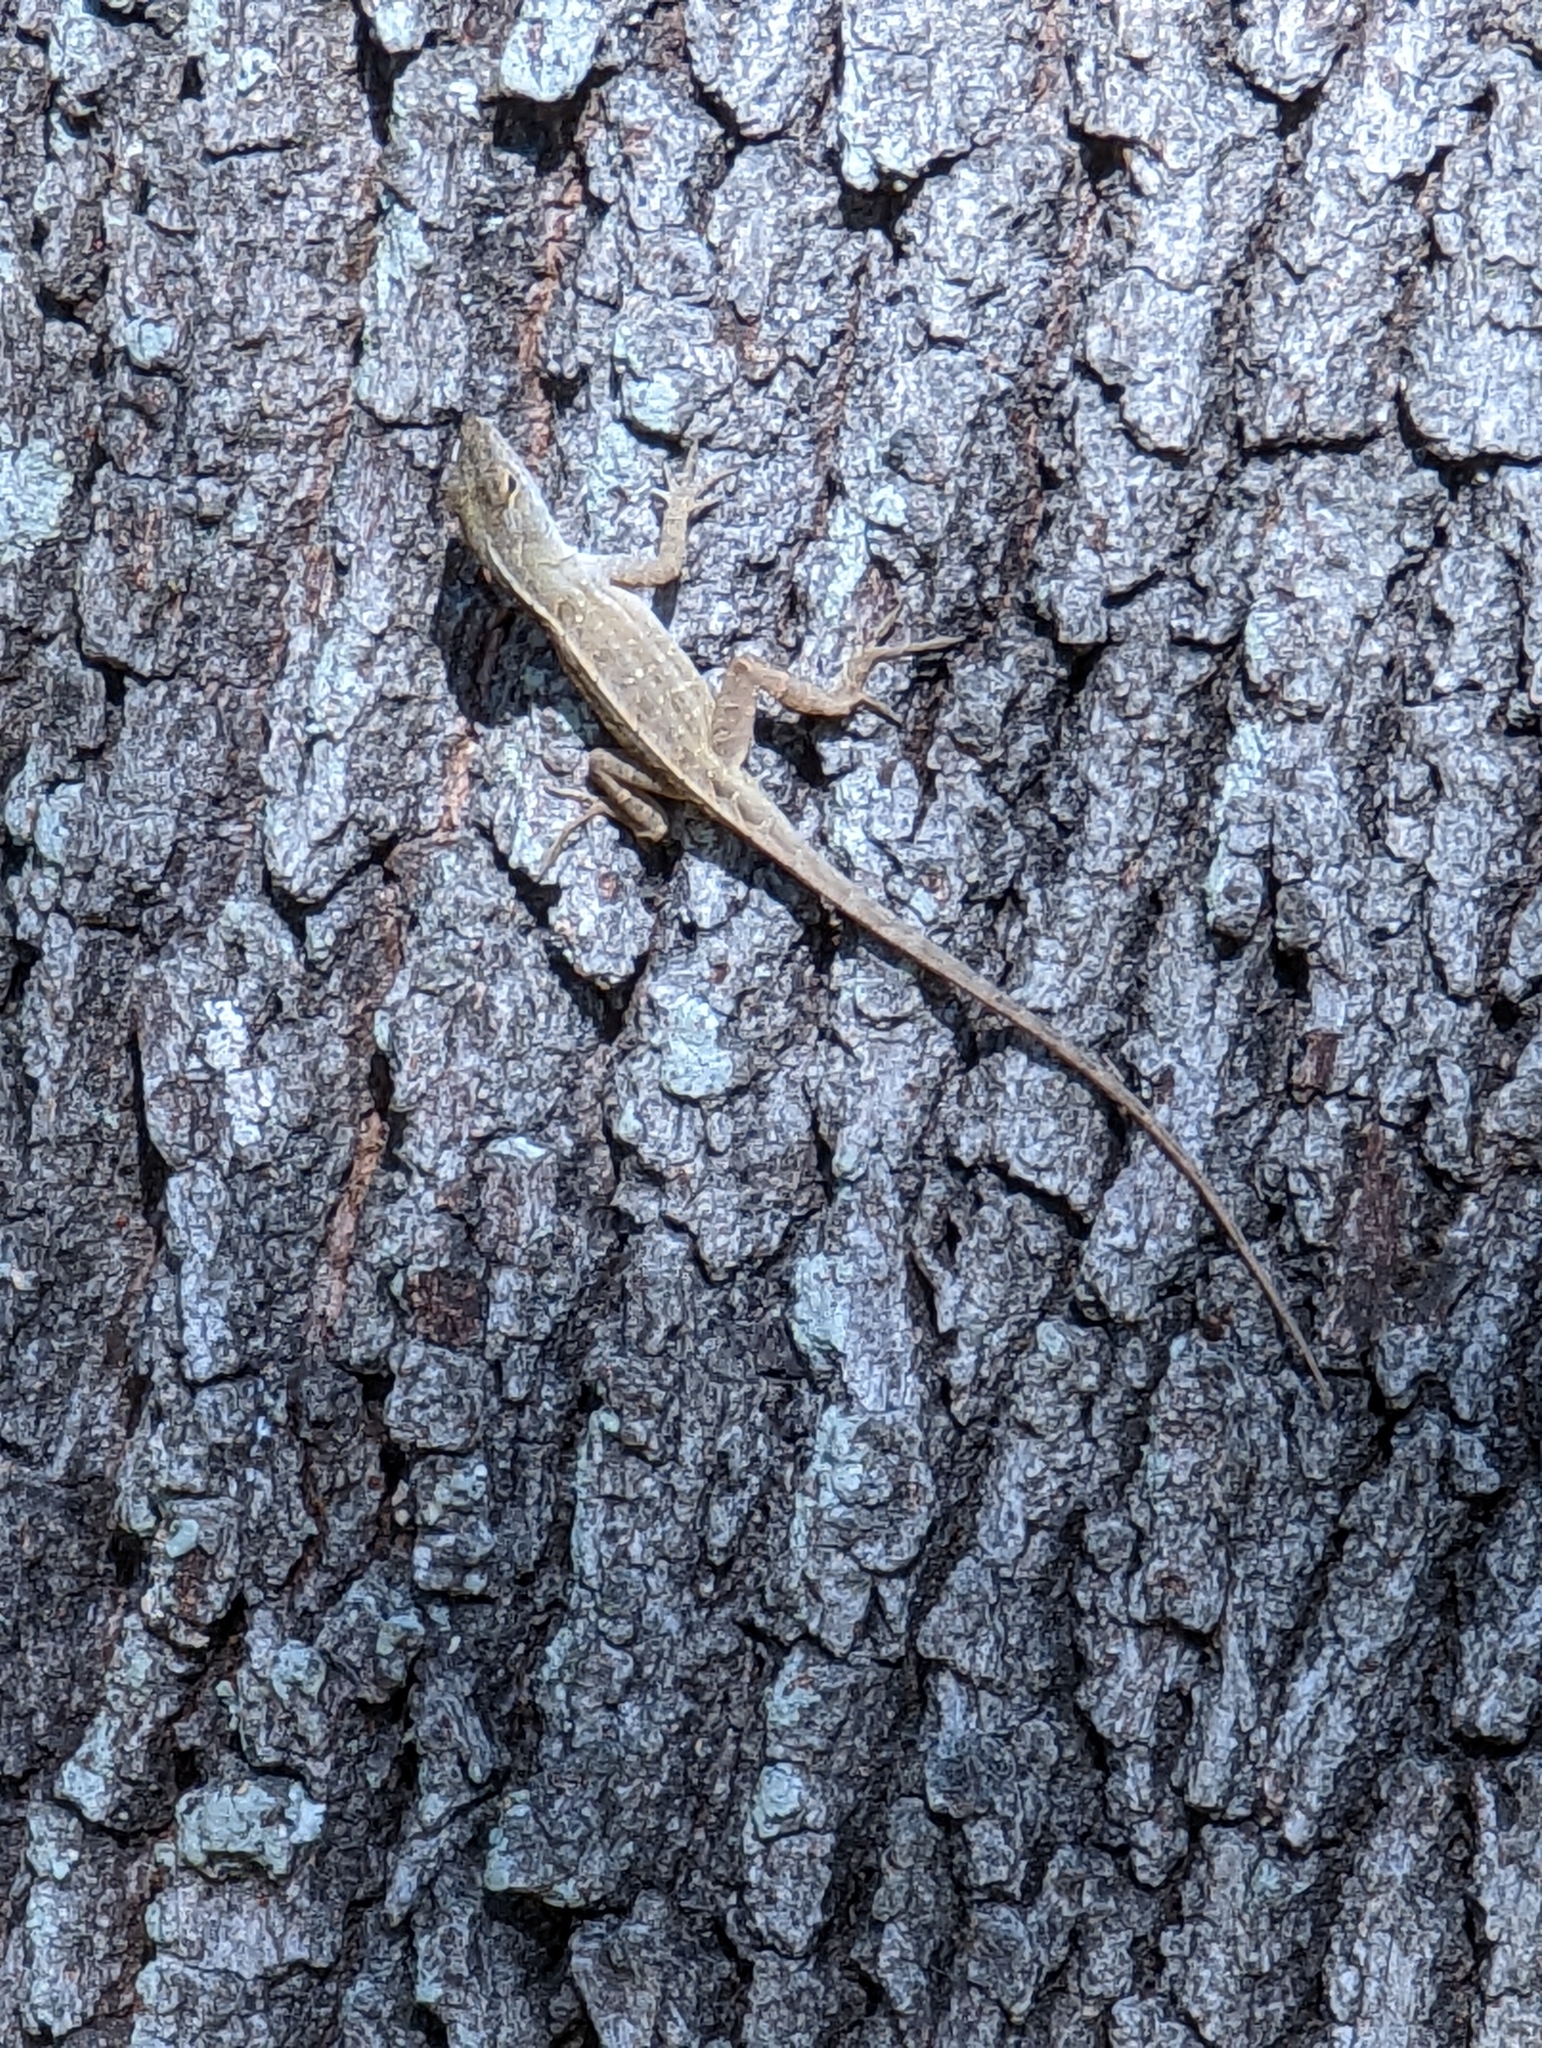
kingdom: Animalia
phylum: Chordata
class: Squamata
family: Dactyloidae
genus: Anolis
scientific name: Anolis sagrei
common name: Brown anole
